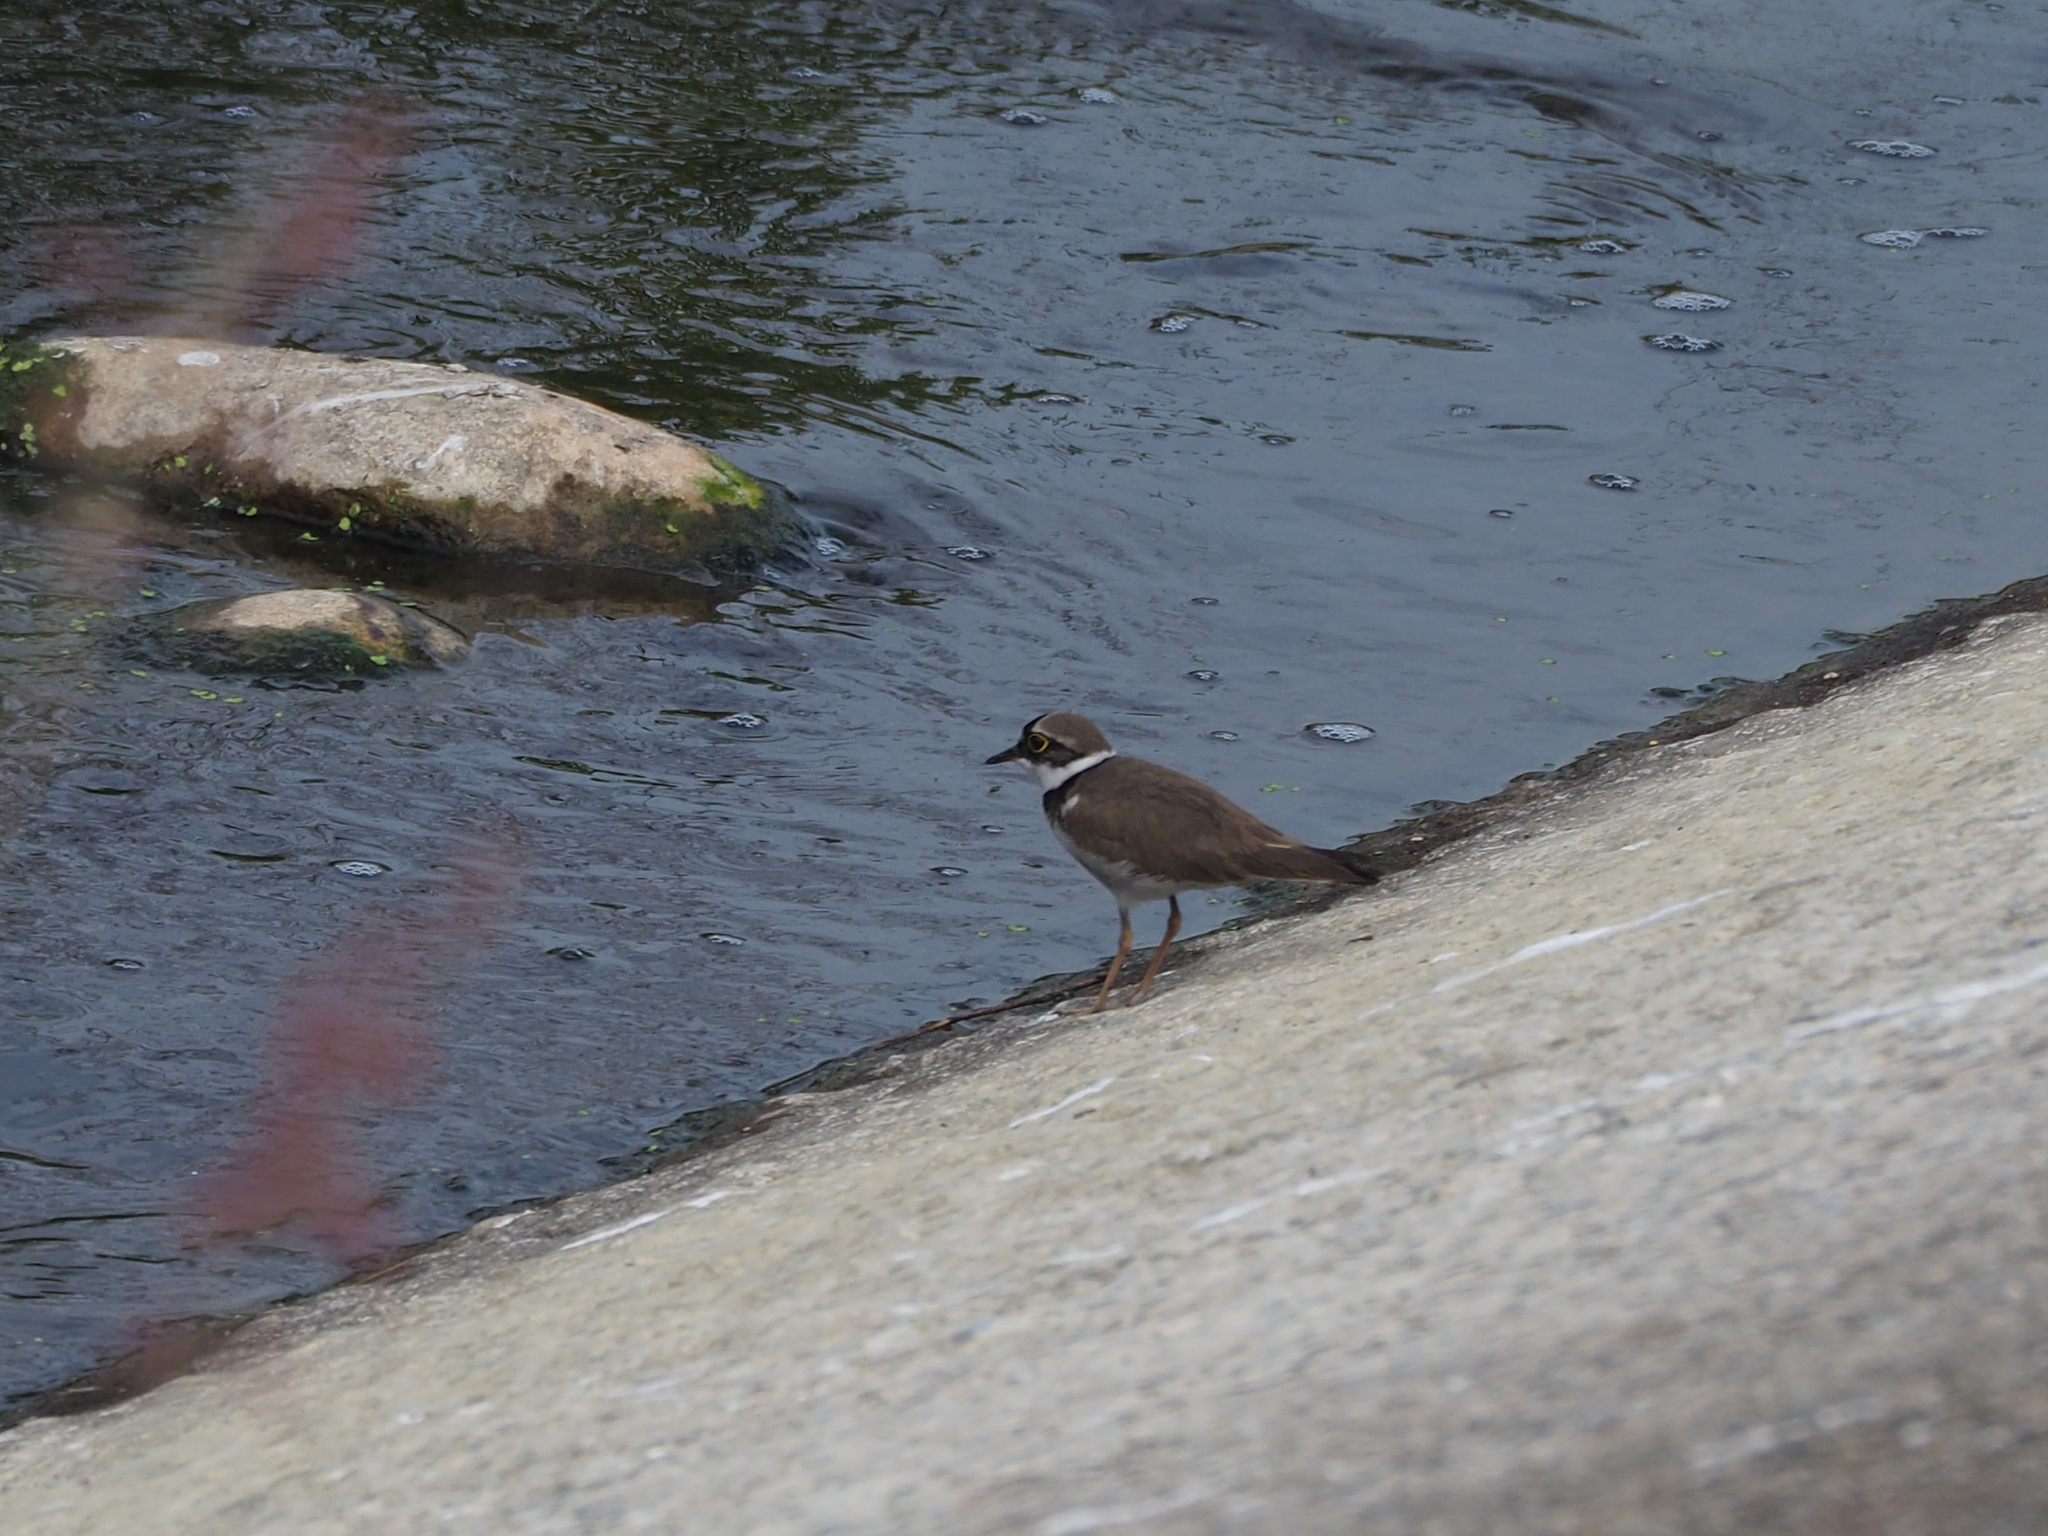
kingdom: Animalia
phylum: Chordata
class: Aves
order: Charadriiformes
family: Charadriidae
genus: Charadrius
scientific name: Charadrius dubius
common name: Little ringed plover
